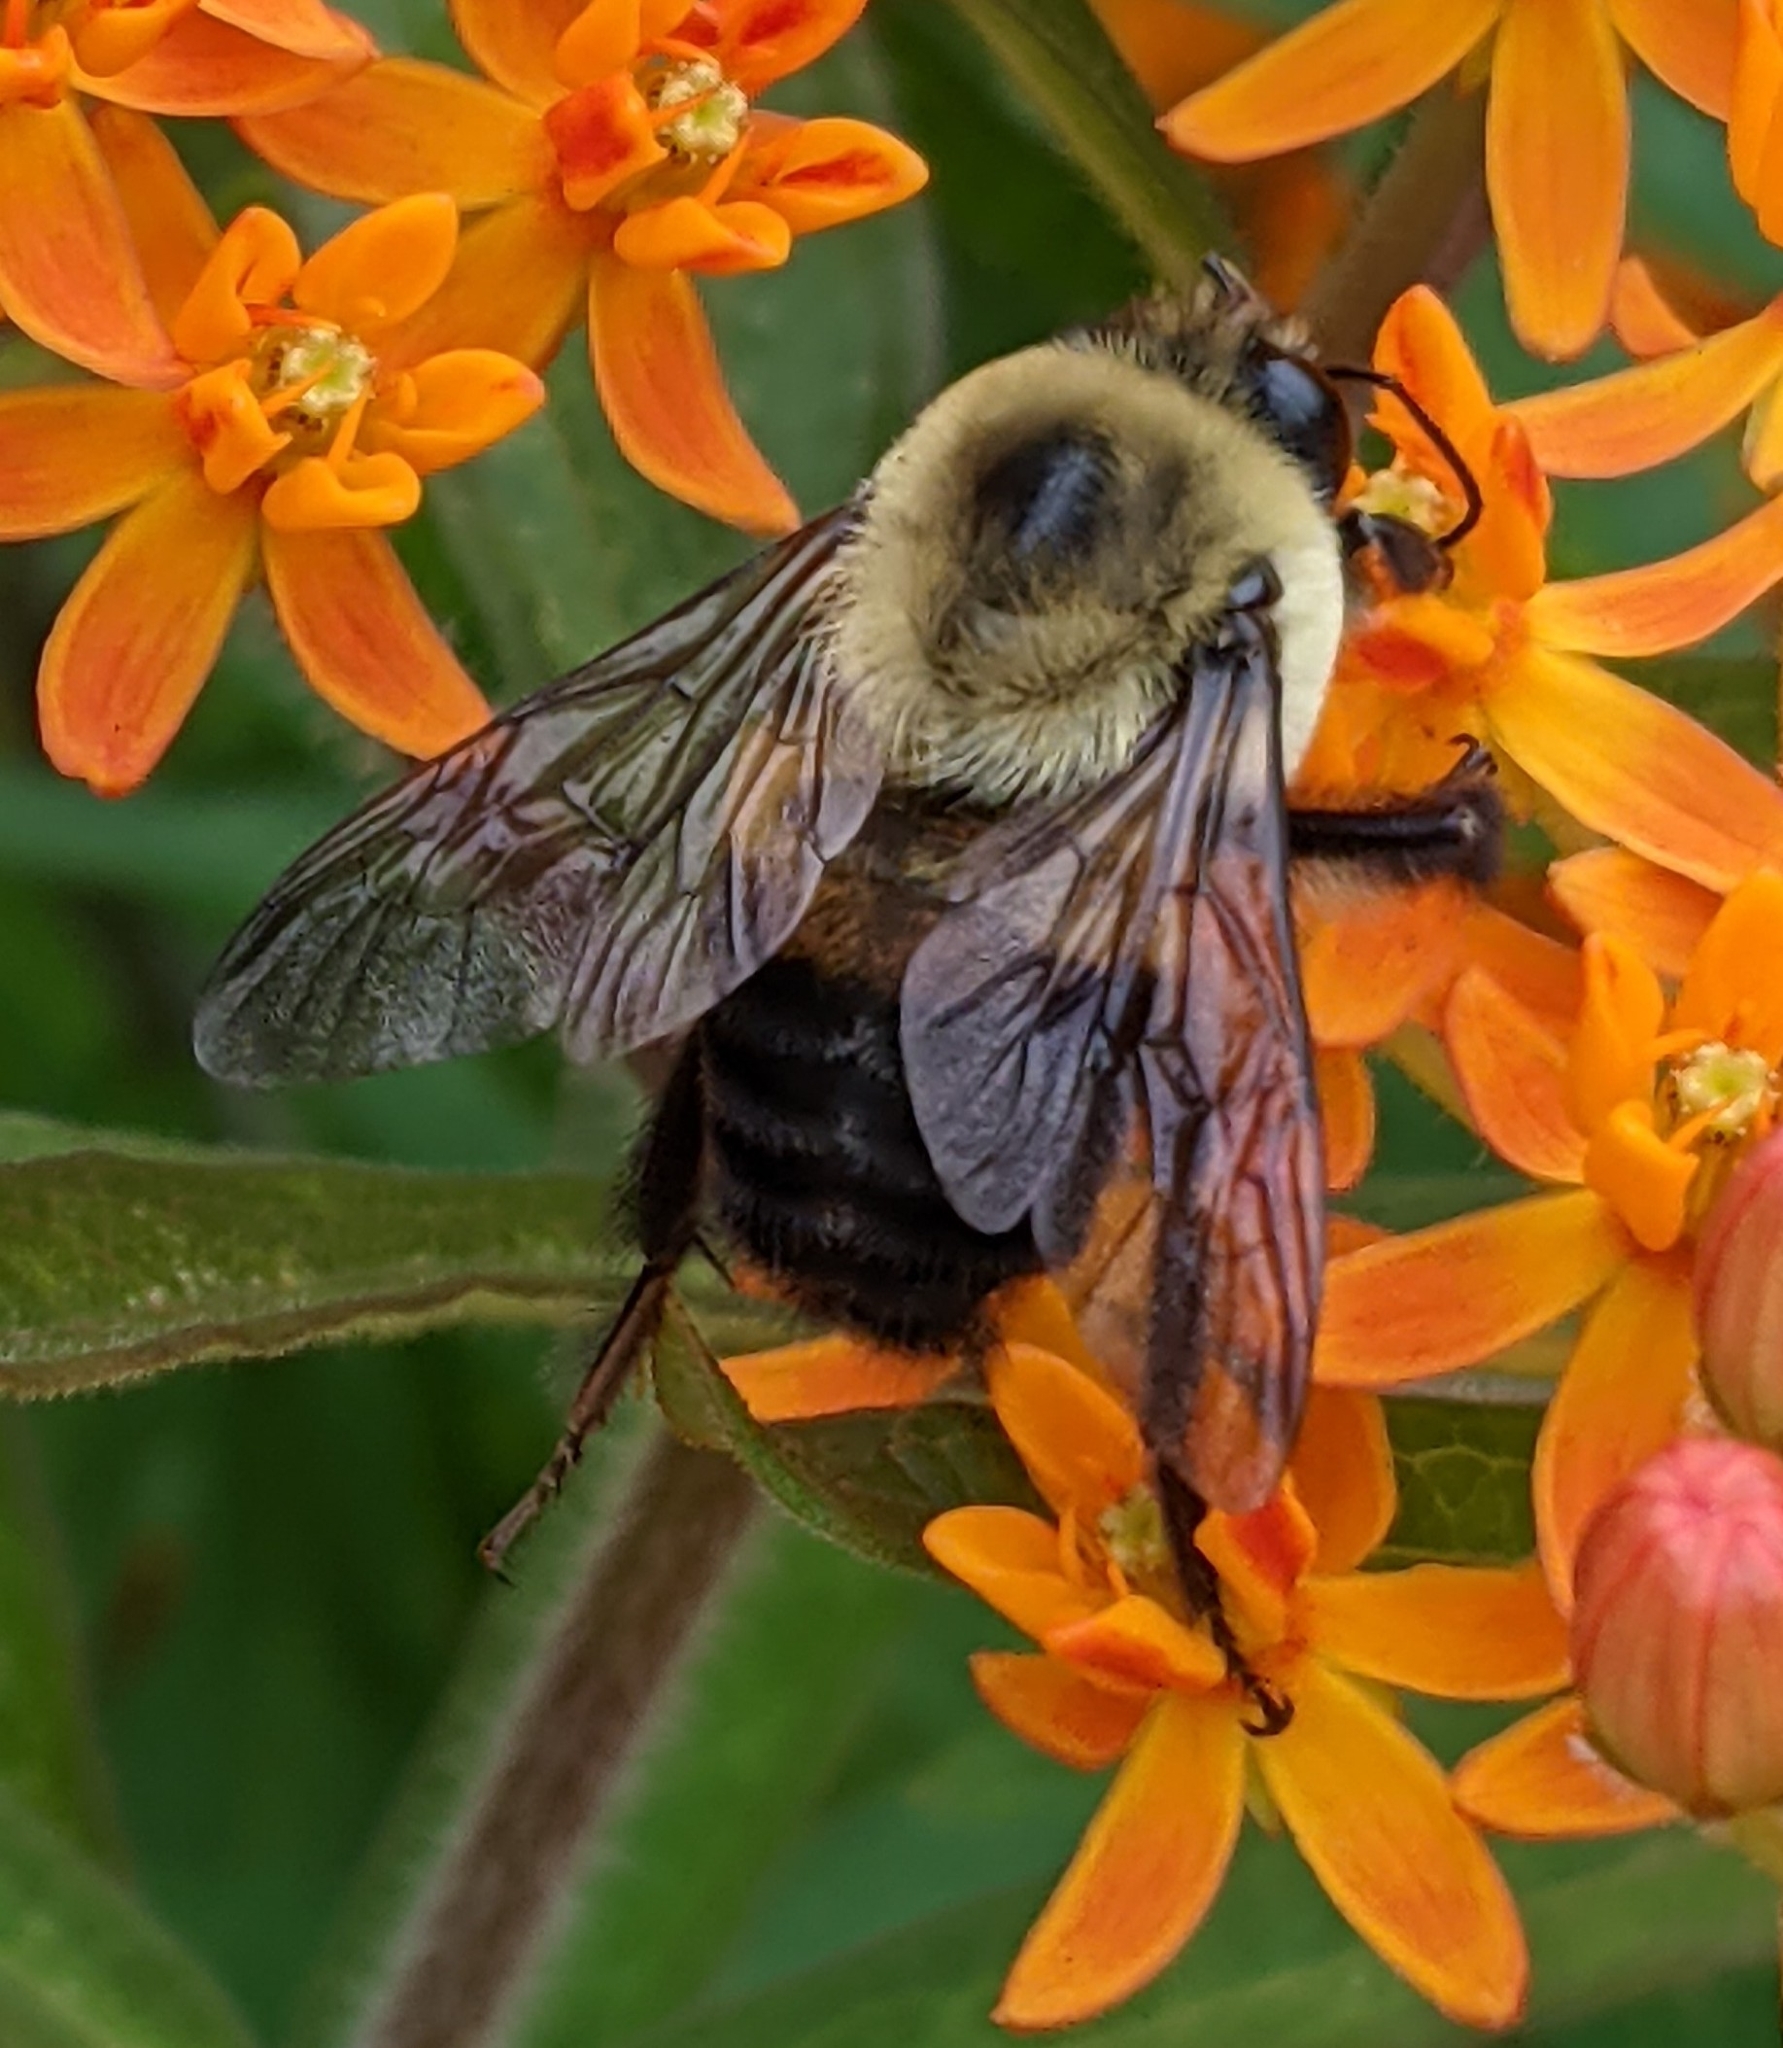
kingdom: Animalia
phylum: Arthropoda
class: Insecta
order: Hymenoptera
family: Apidae
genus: Bombus
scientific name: Bombus griseocollis
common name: Brown-belted bumble bee
